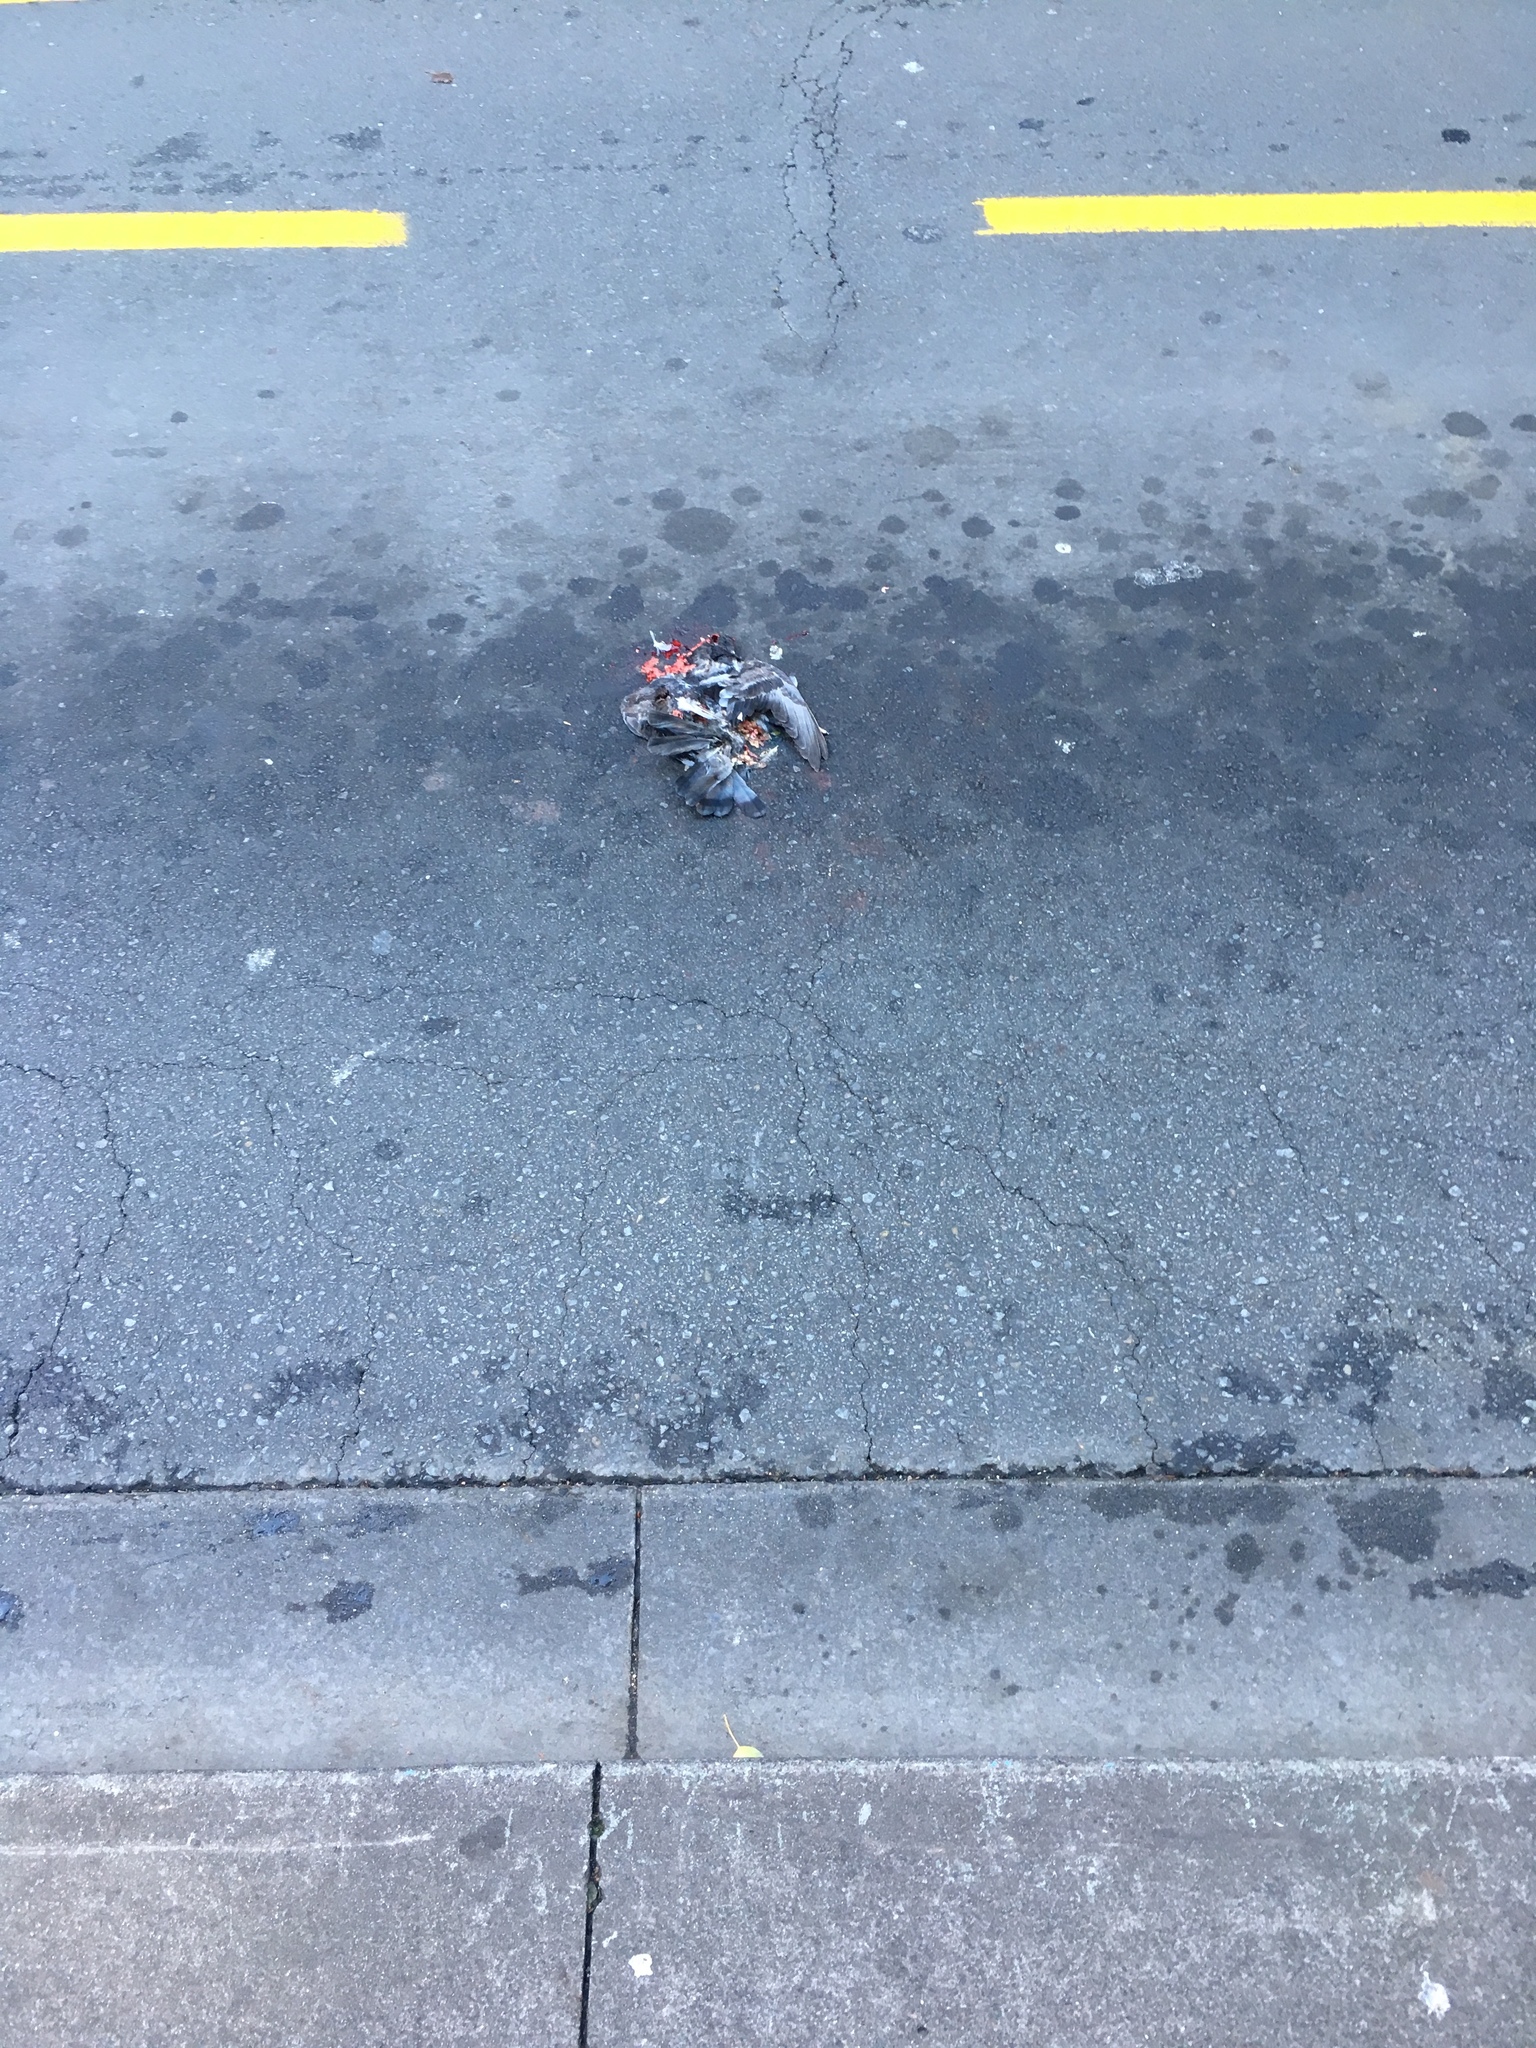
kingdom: Animalia
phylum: Chordata
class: Aves
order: Columbiformes
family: Columbidae
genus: Columba
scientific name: Columba livia
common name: Rock pigeon
